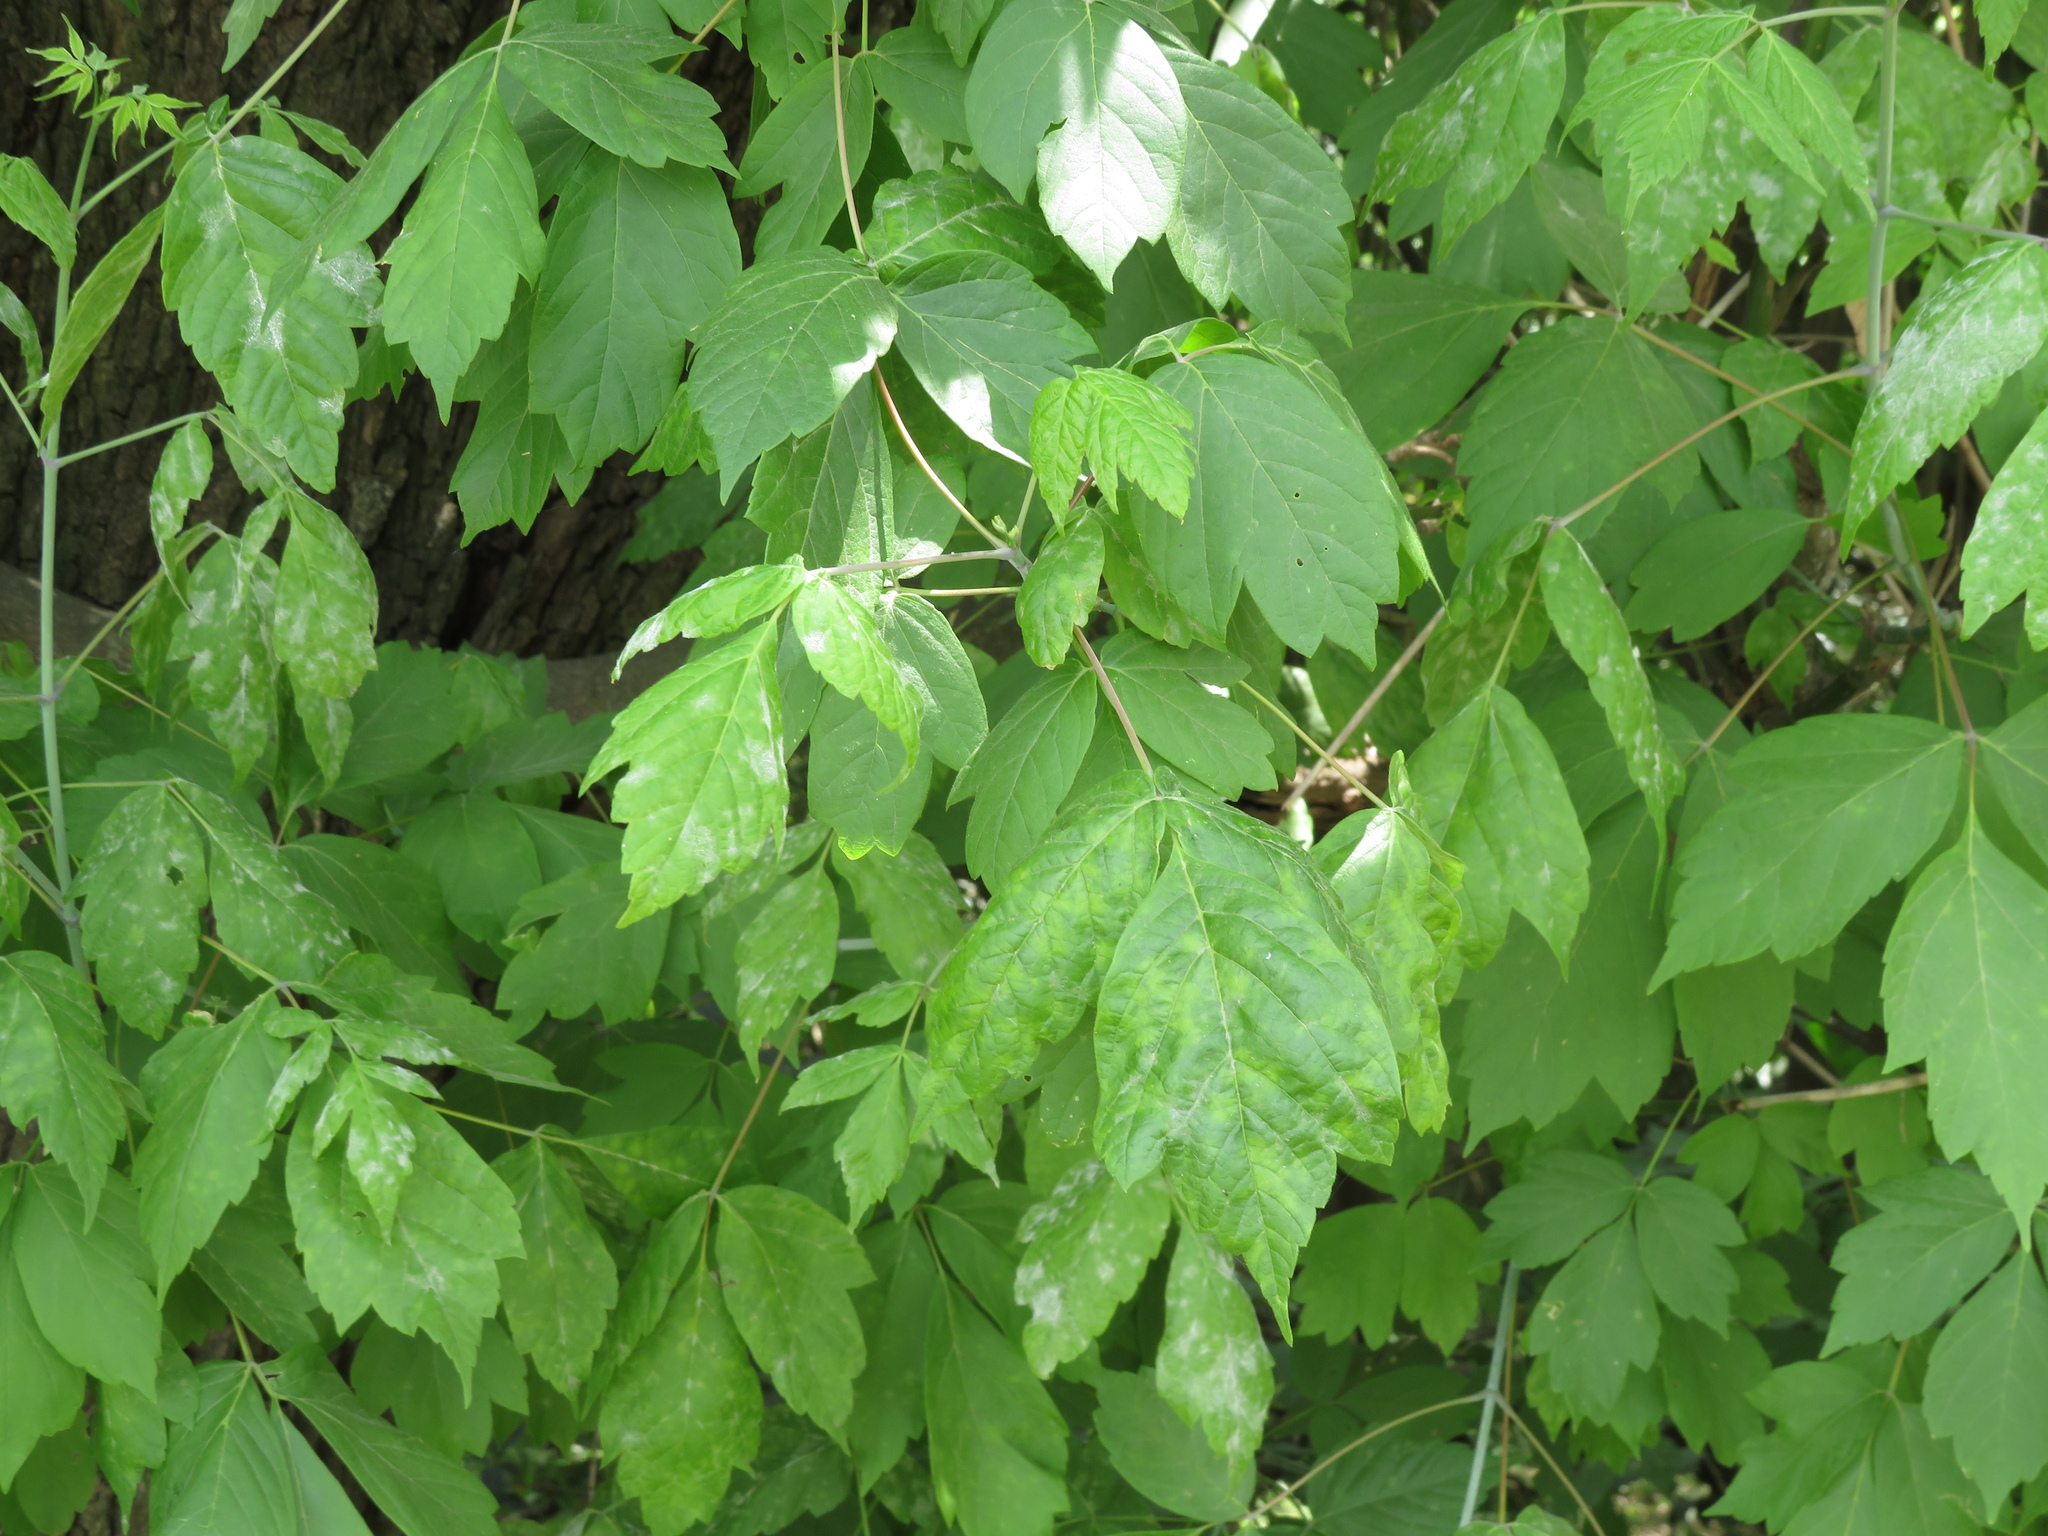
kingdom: Plantae
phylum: Tracheophyta
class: Magnoliopsida
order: Sapindales
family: Sapindaceae
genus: Acer
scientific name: Acer negundo
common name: Ashleaf maple
